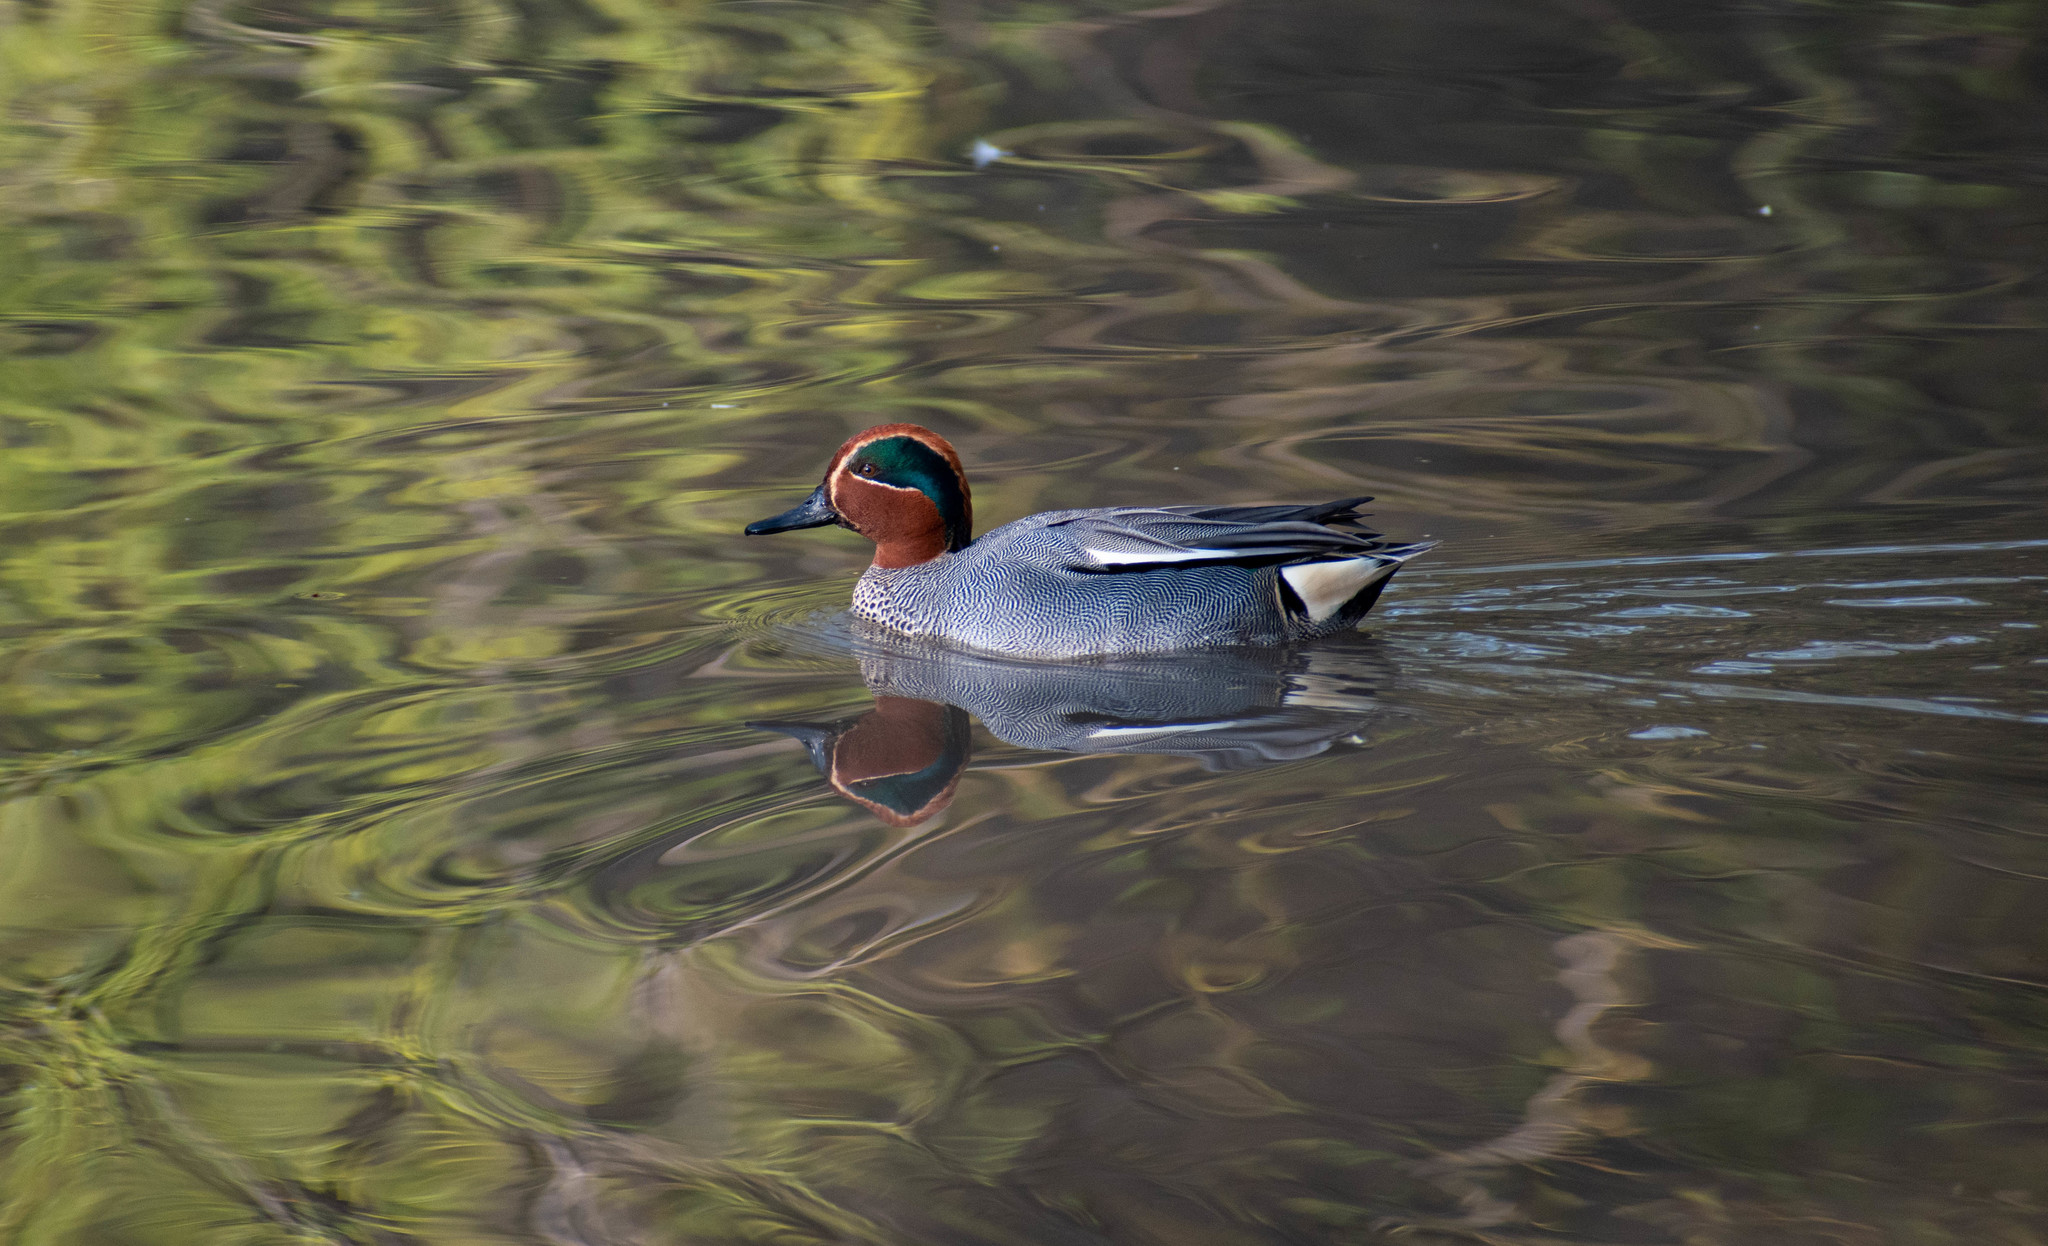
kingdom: Animalia
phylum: Chordata
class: Aves
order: Anseriformes
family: Anatidae
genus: Anas
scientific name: Anas crecca
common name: Eurasian teal
